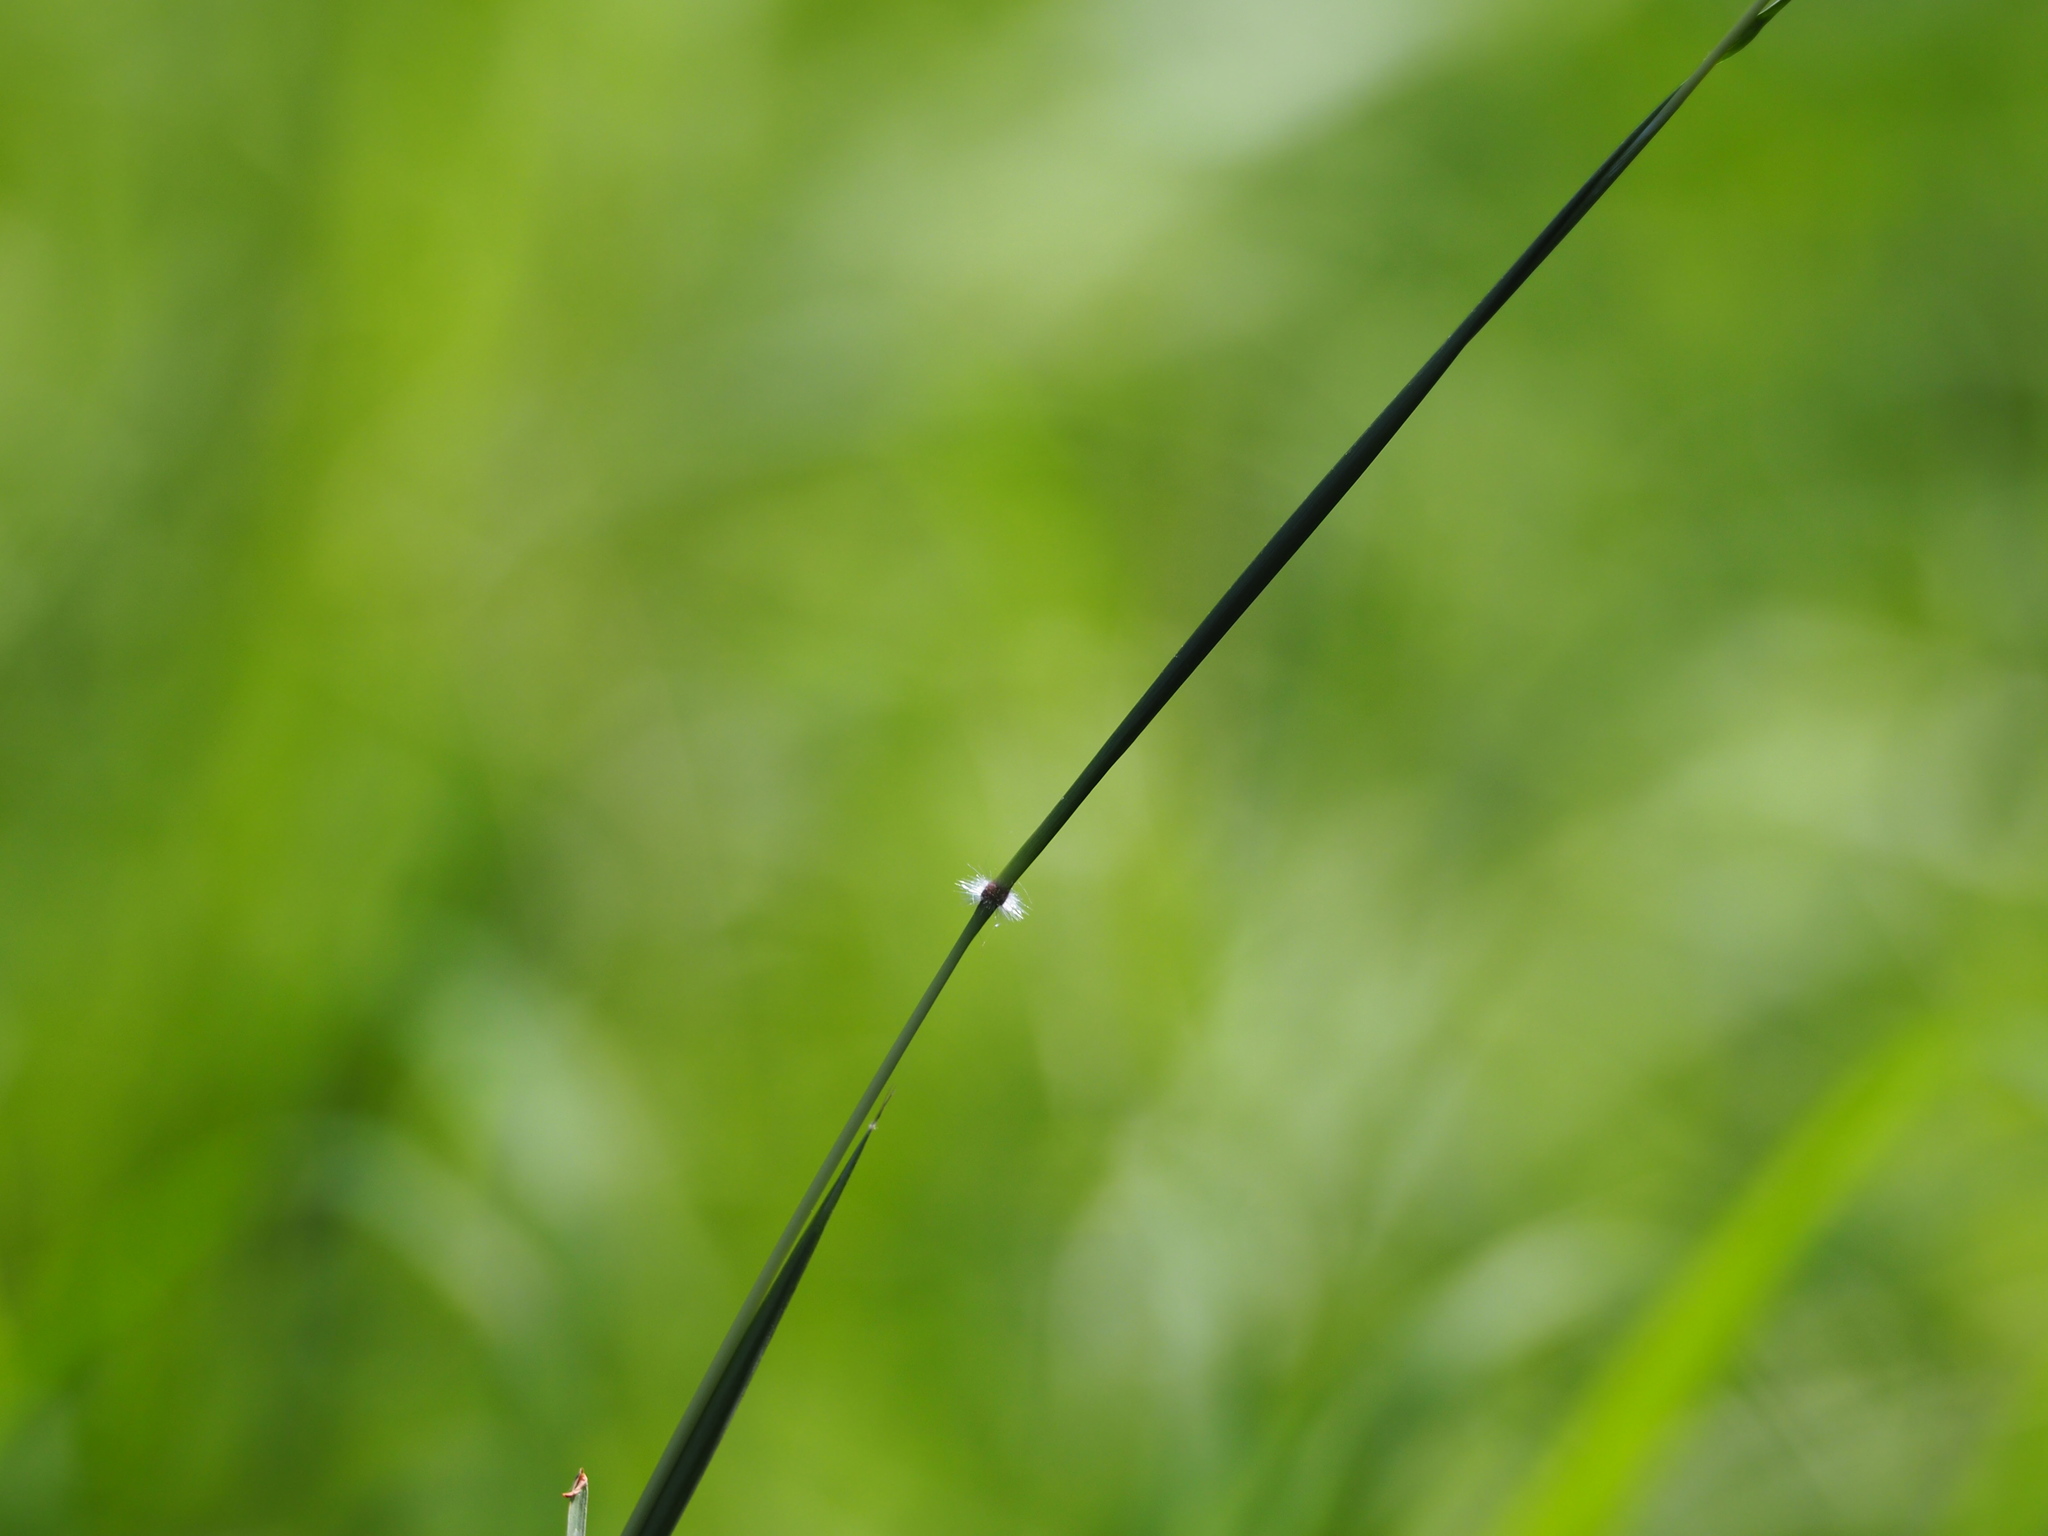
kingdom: Plantae
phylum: Tracheophyta
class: Liliopsida
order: Poales
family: Poaceae
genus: Dichanthium
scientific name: Dichanthium annulatum
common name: Kleberg's bluestem
